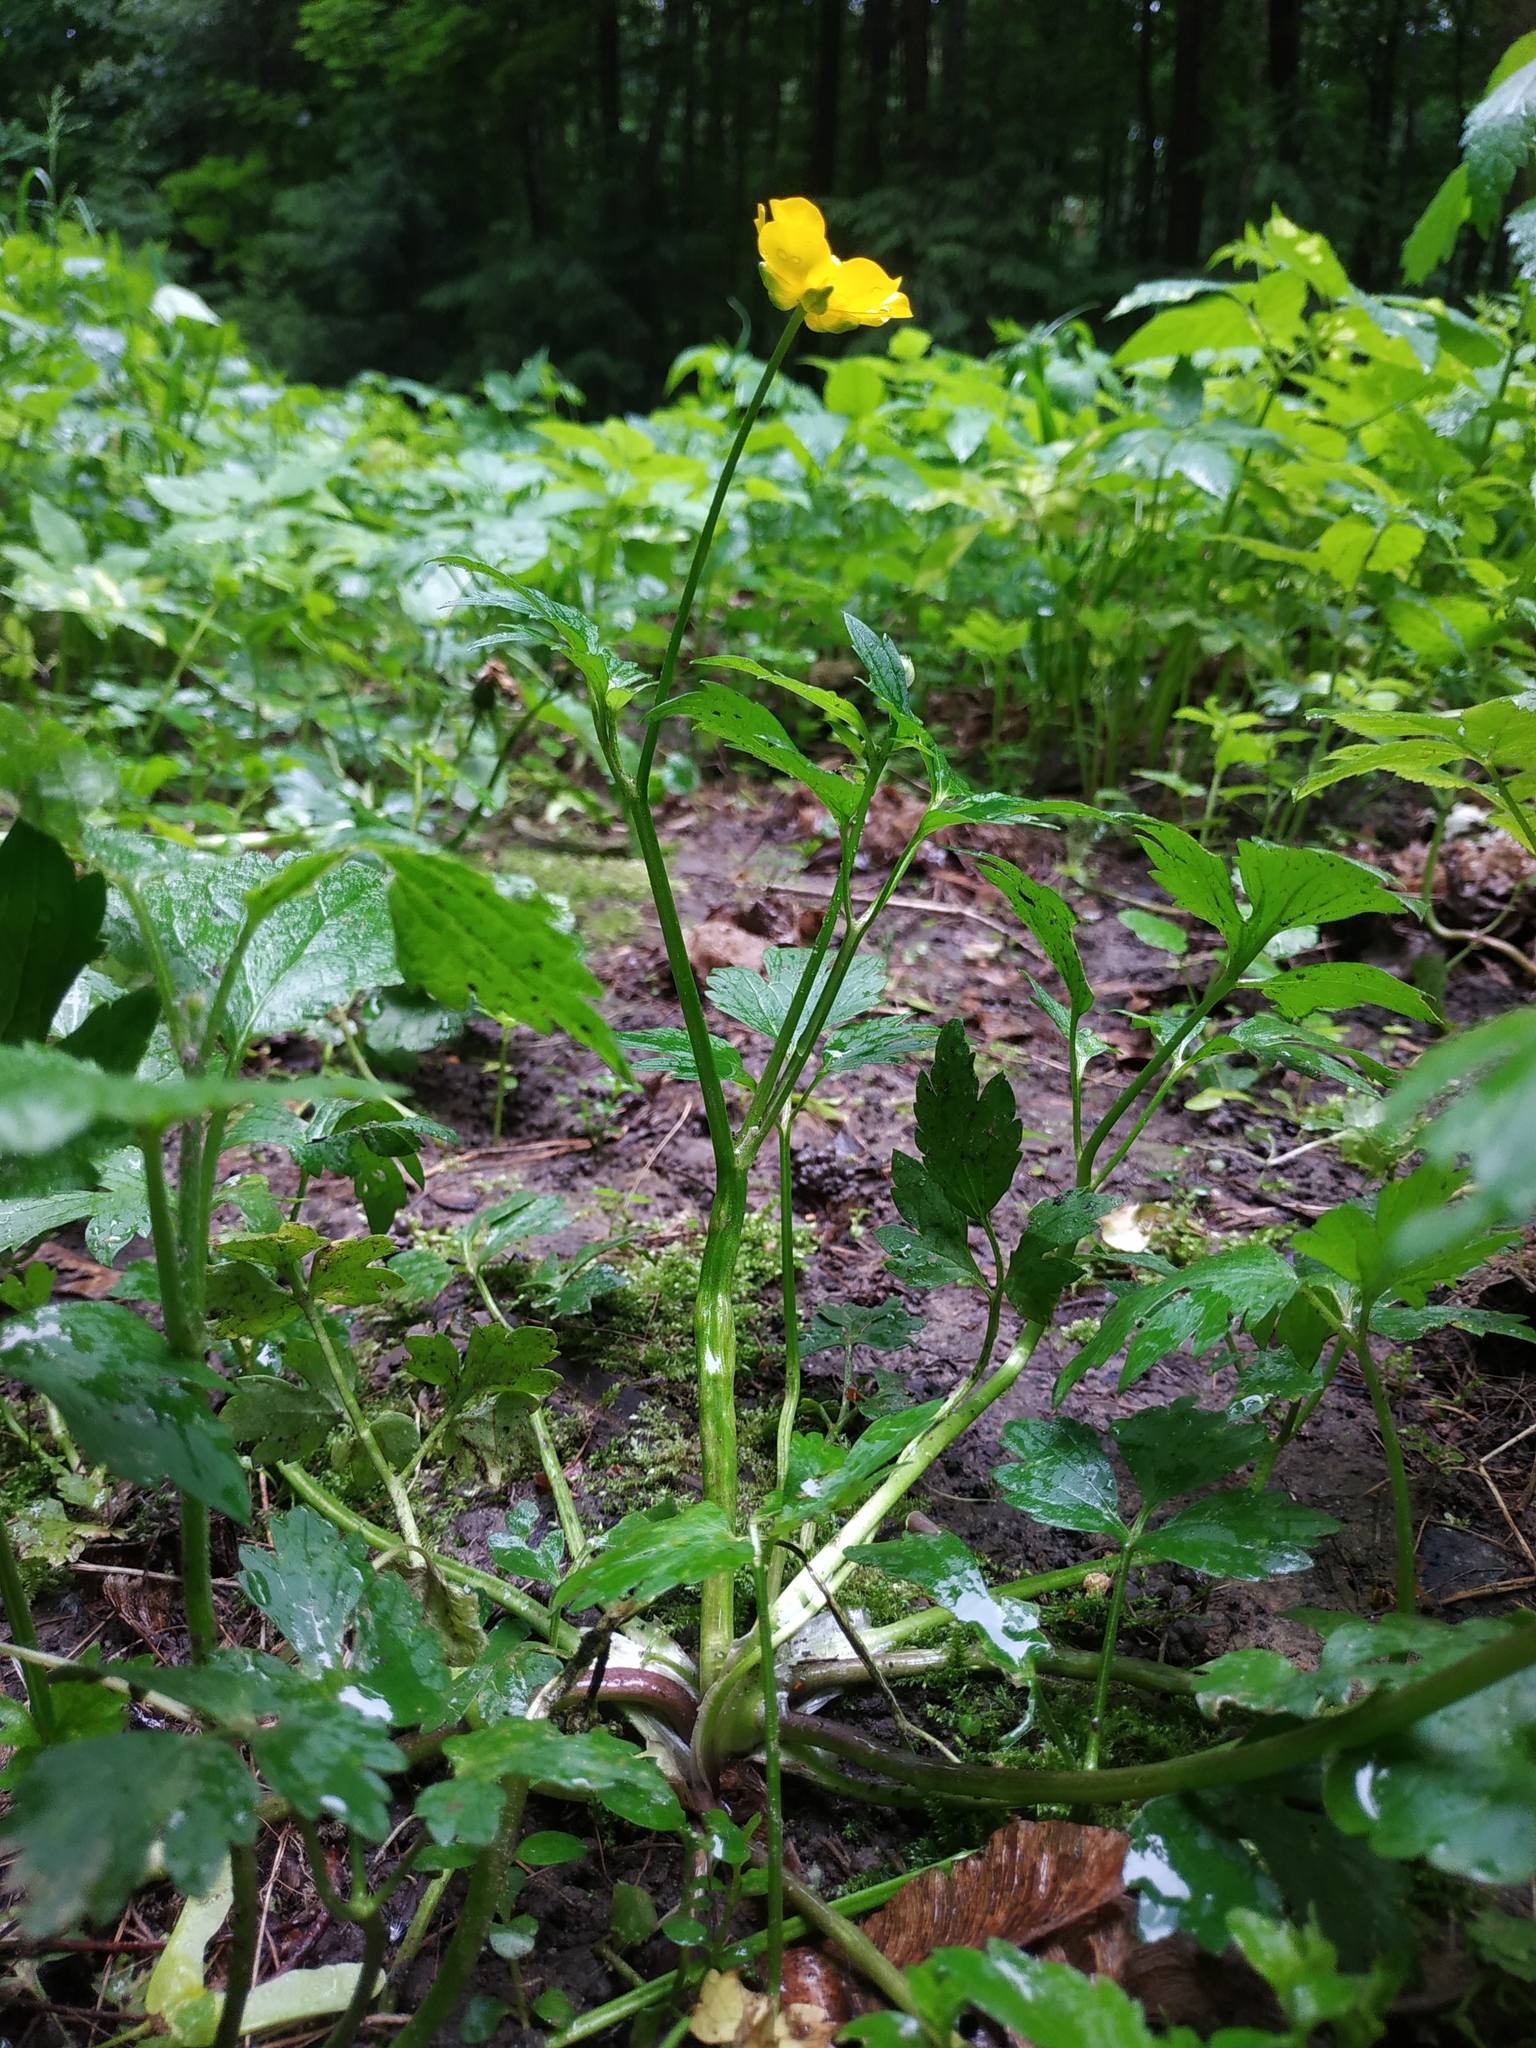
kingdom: Plantae
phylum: Tracheophyta
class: Magnoliopsida
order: Ranunculales
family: Ranunculaceae
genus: Ranunculus
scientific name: Ranunculus repens
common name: Creeping buttercup
